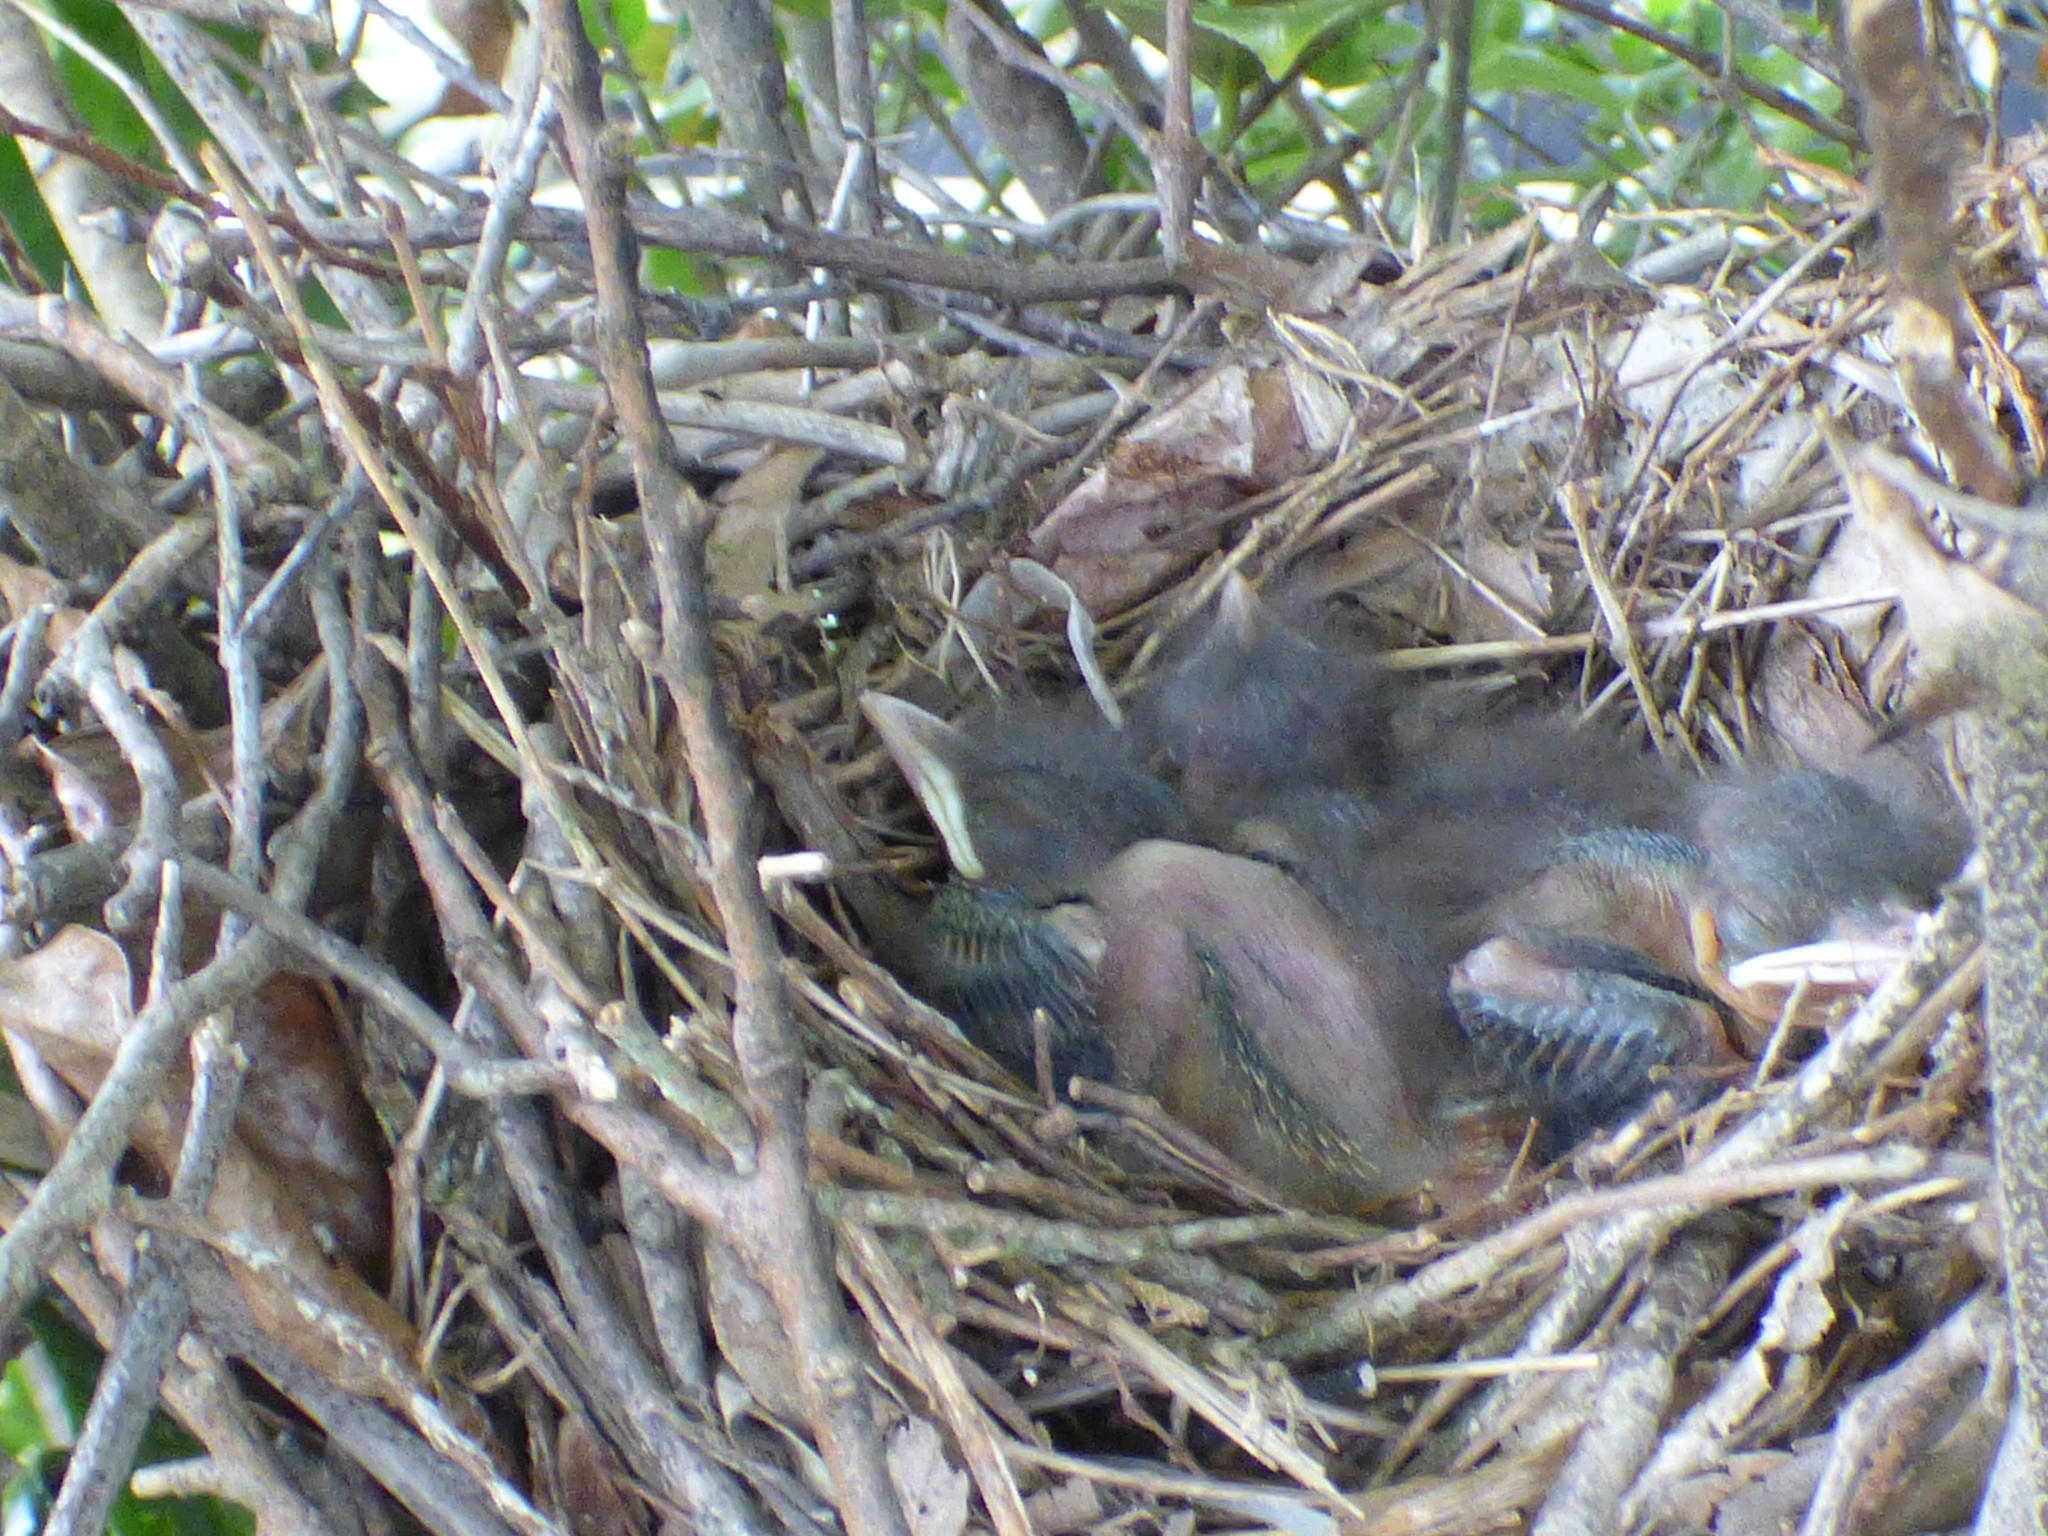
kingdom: Animalia
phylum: Chordata
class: Aves
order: Passeriformes
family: Mimidae
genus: Toxostoma
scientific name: Toxostoma rufum
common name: Brown thrasher
